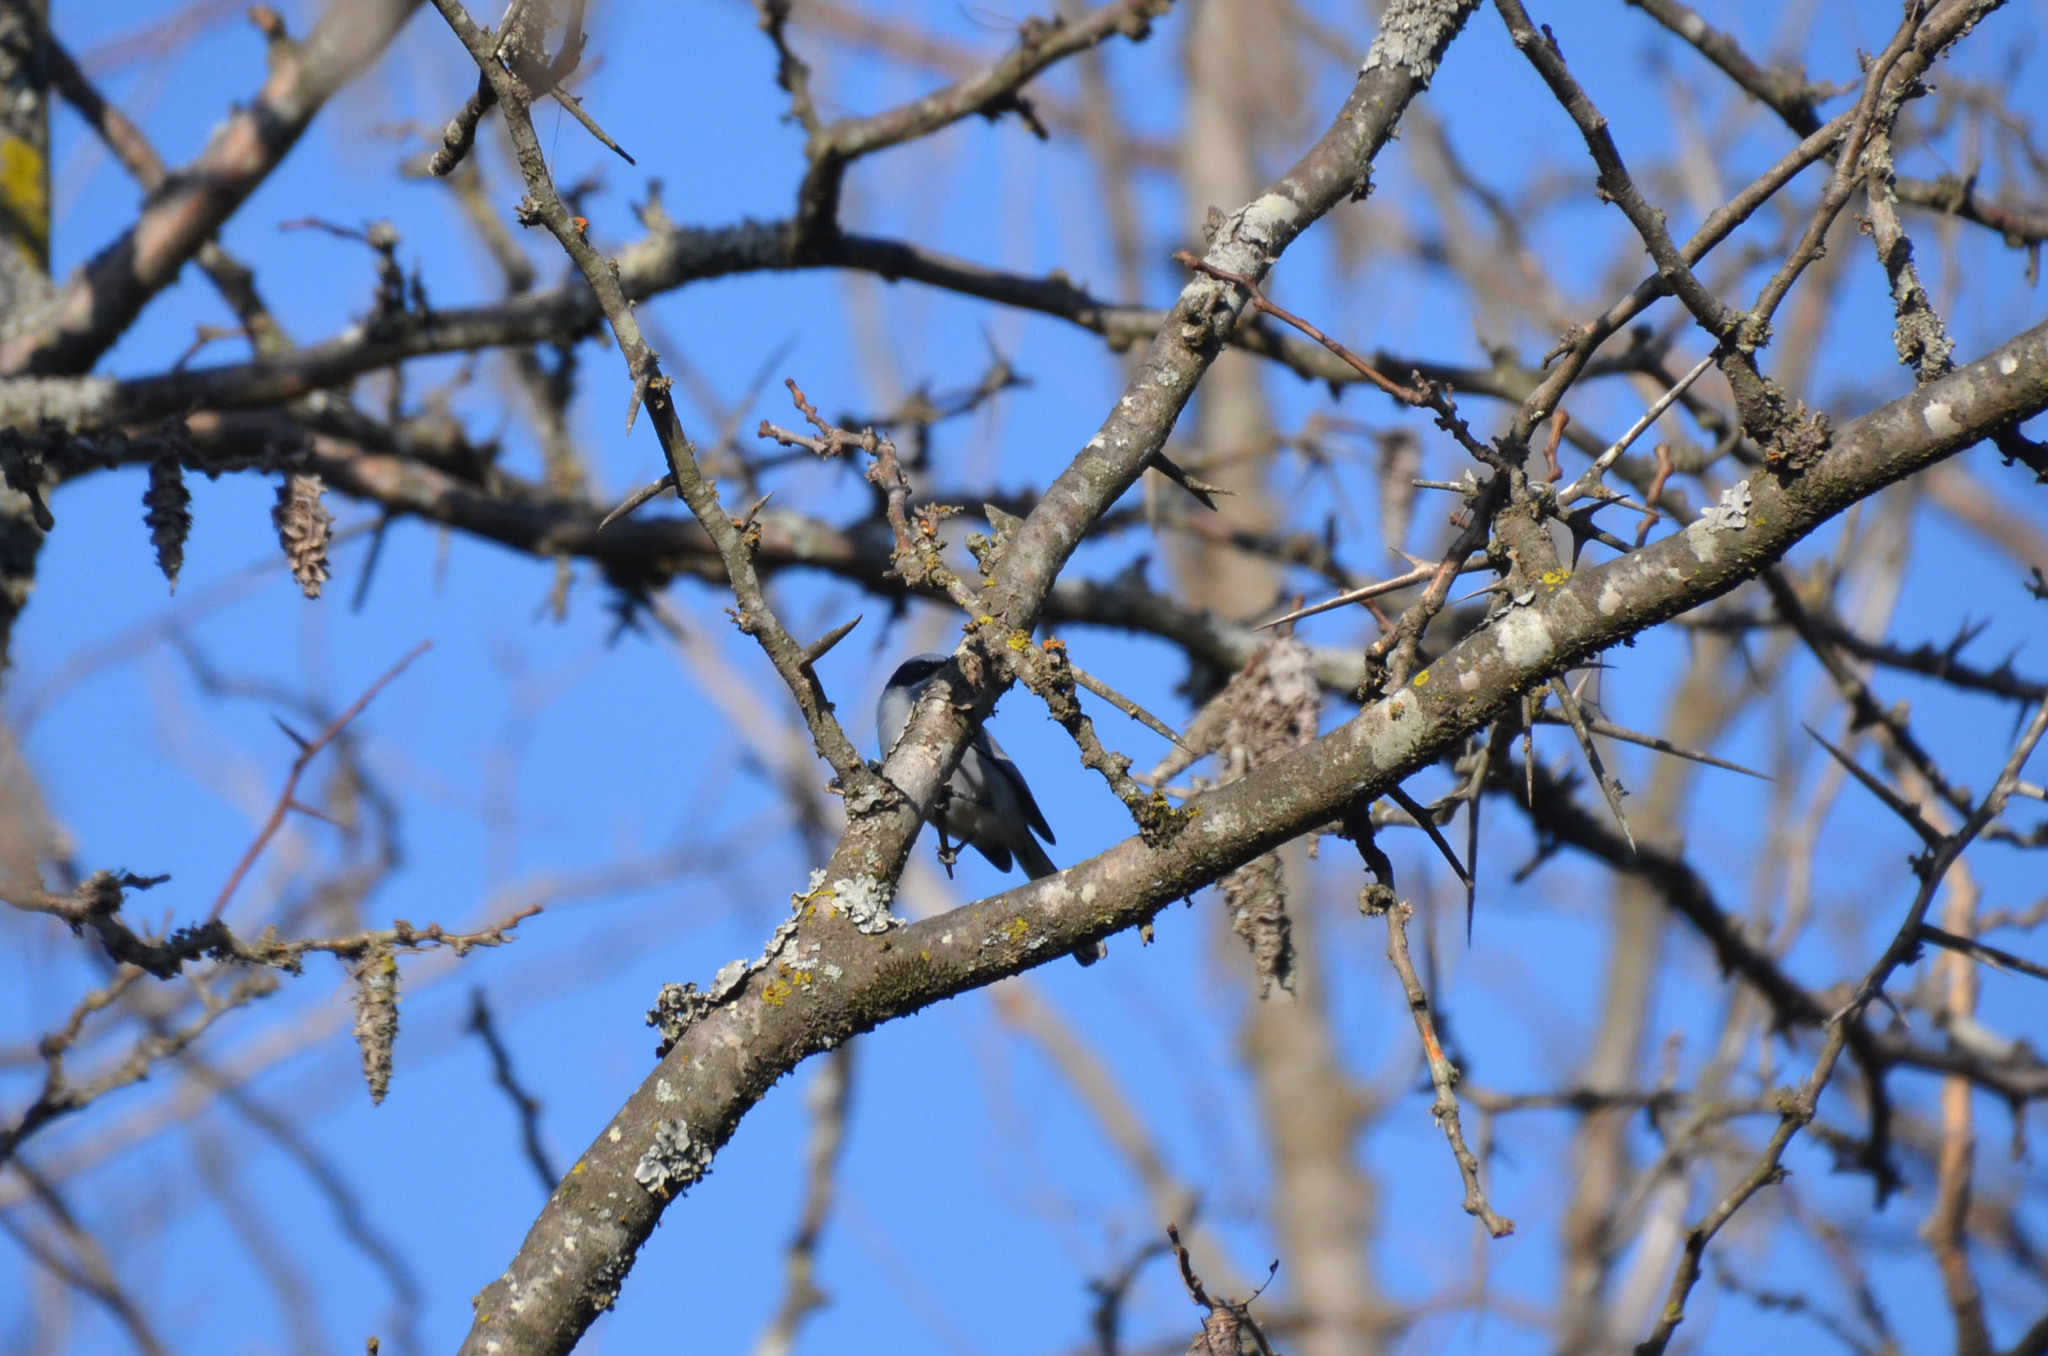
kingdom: Animalia
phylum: Chordata
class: Aves
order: Passeriformes
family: Polioptilidae
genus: Polioptila
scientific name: Polioptila dumicola
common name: Masked gnatcatcher
